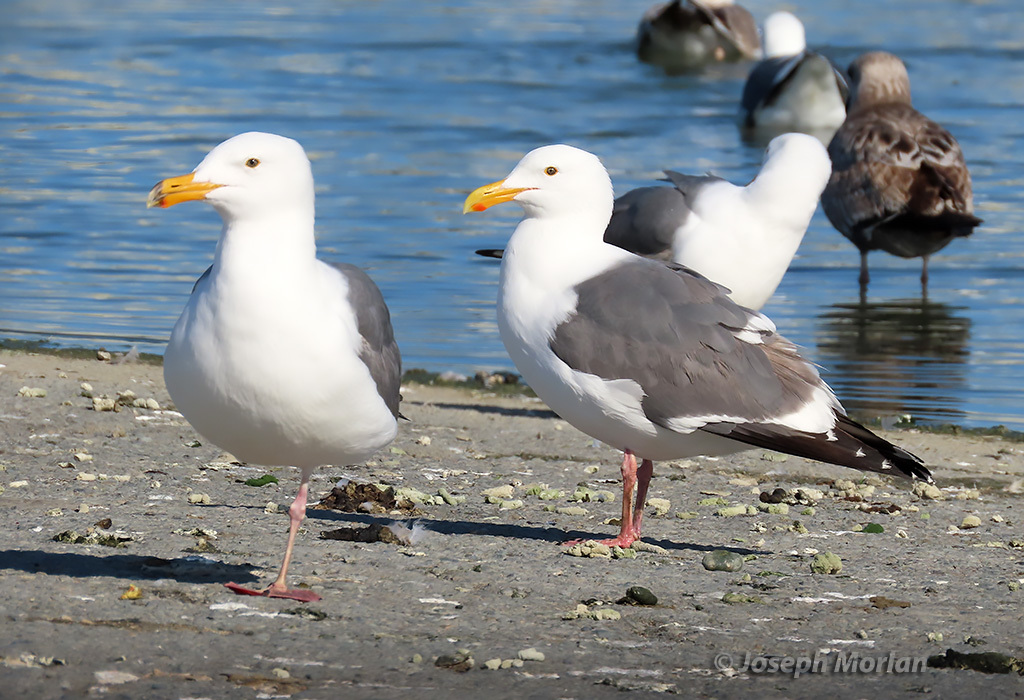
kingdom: Animalia
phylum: Chordata
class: Aves
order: Charadriiformes
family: Laridae
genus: Larus
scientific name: Larus occidentalis
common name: Western gull
